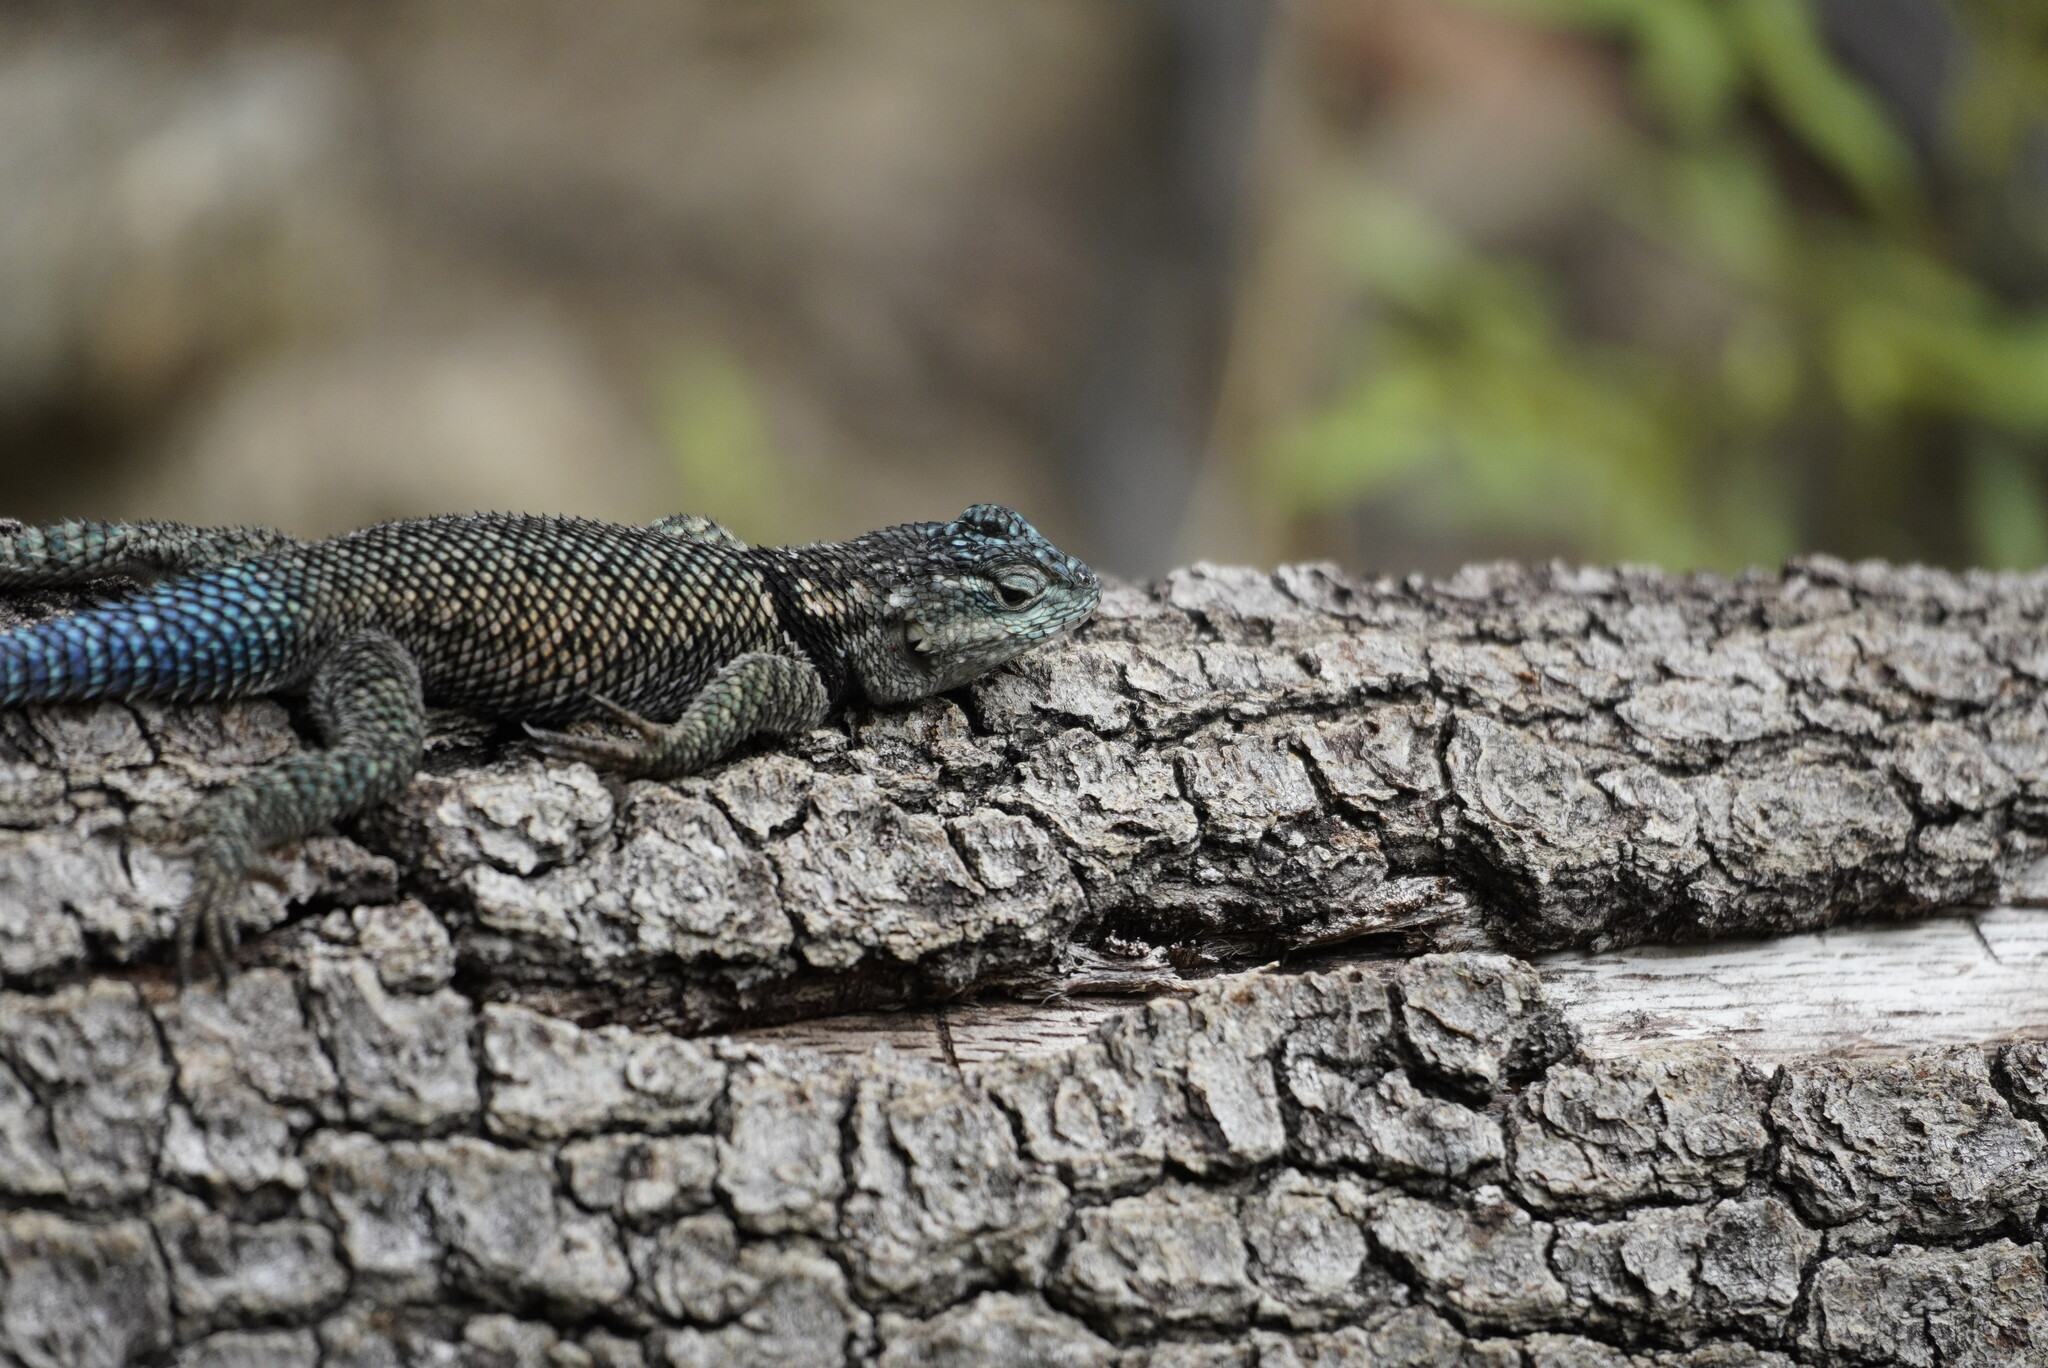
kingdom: Animalia
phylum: Chordata
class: Squamata
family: Phrynosomatidae
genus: Sceloporus
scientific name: Sceloporus jarrovii
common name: Yarrow's spiny lizard
